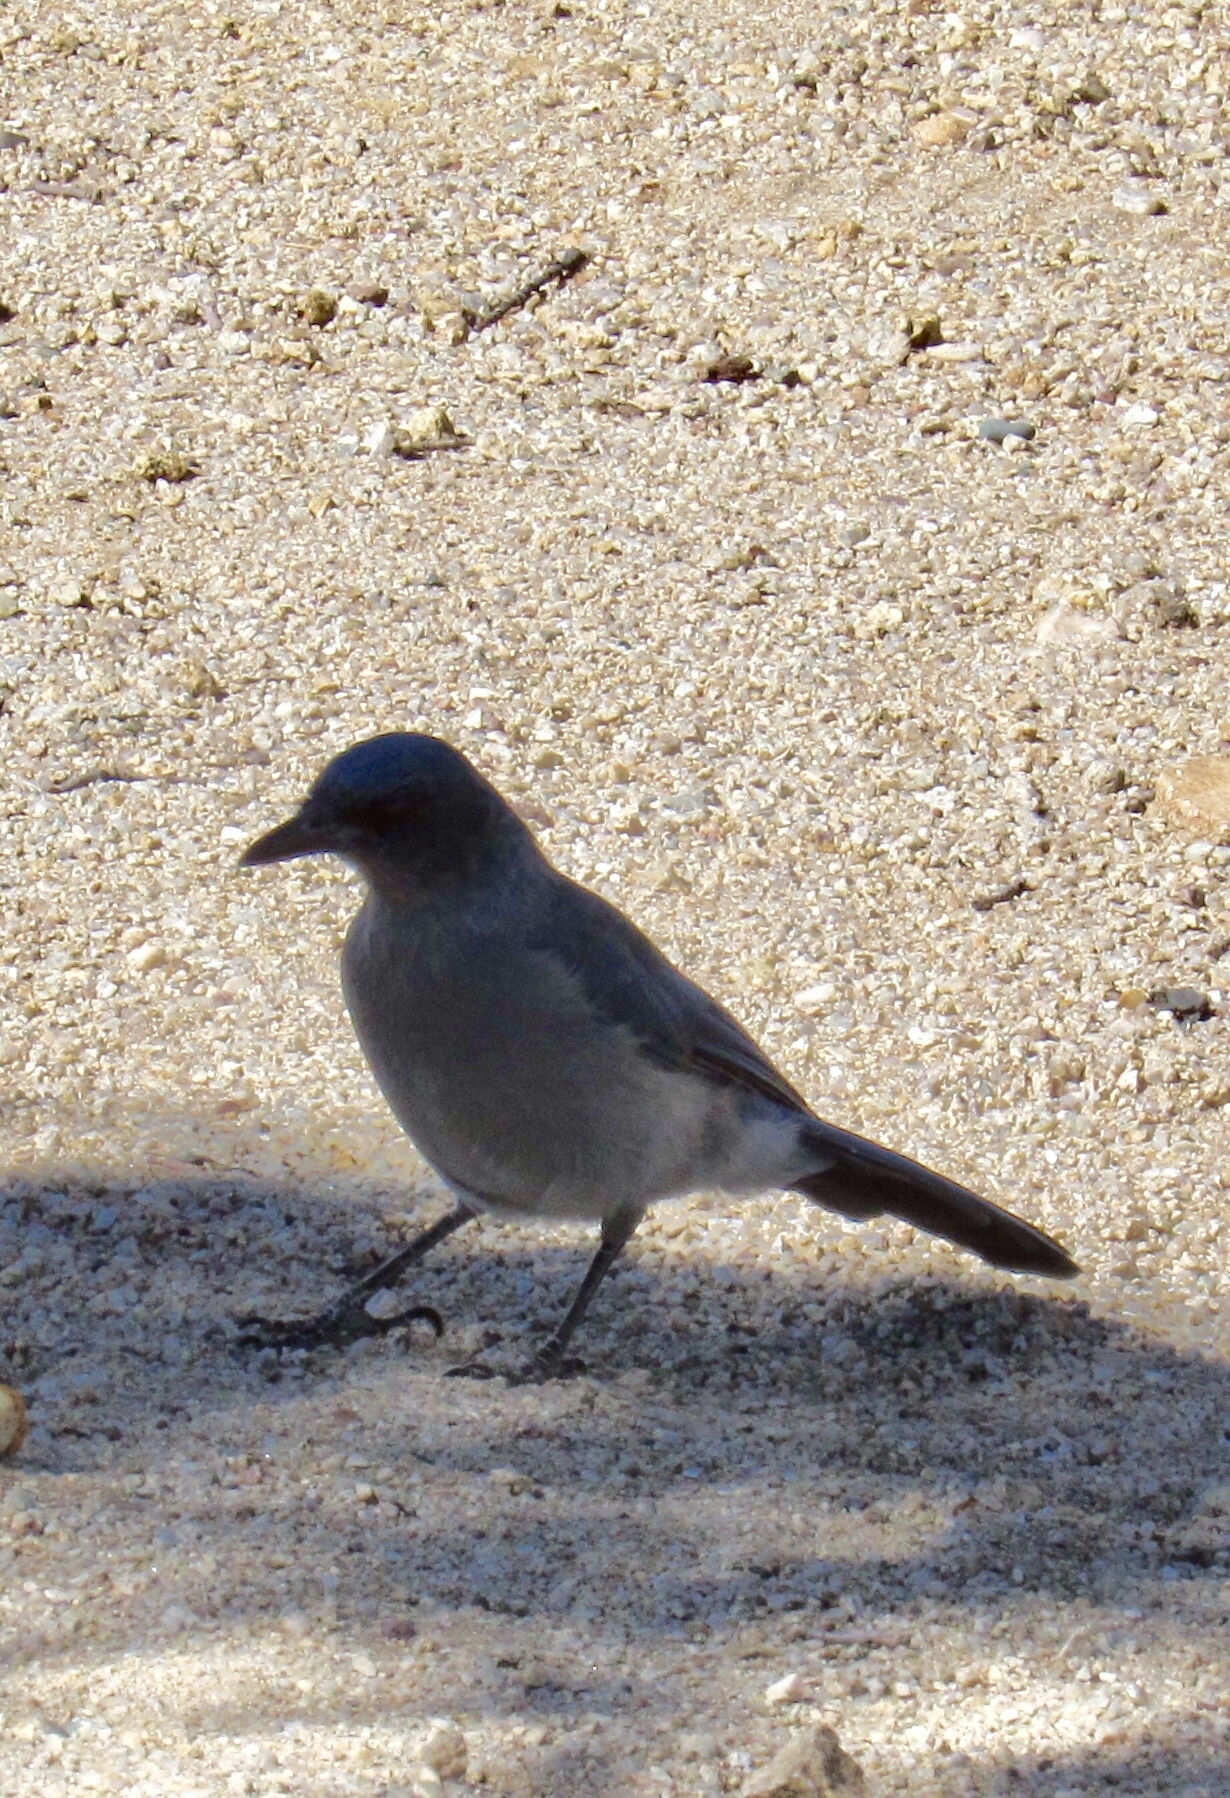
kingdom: Animalia
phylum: Chordata
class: Aves
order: Passeriformes
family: Corvidae
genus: Aphelocoma
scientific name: Aphelocoma wollweberi
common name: Mexican jay
